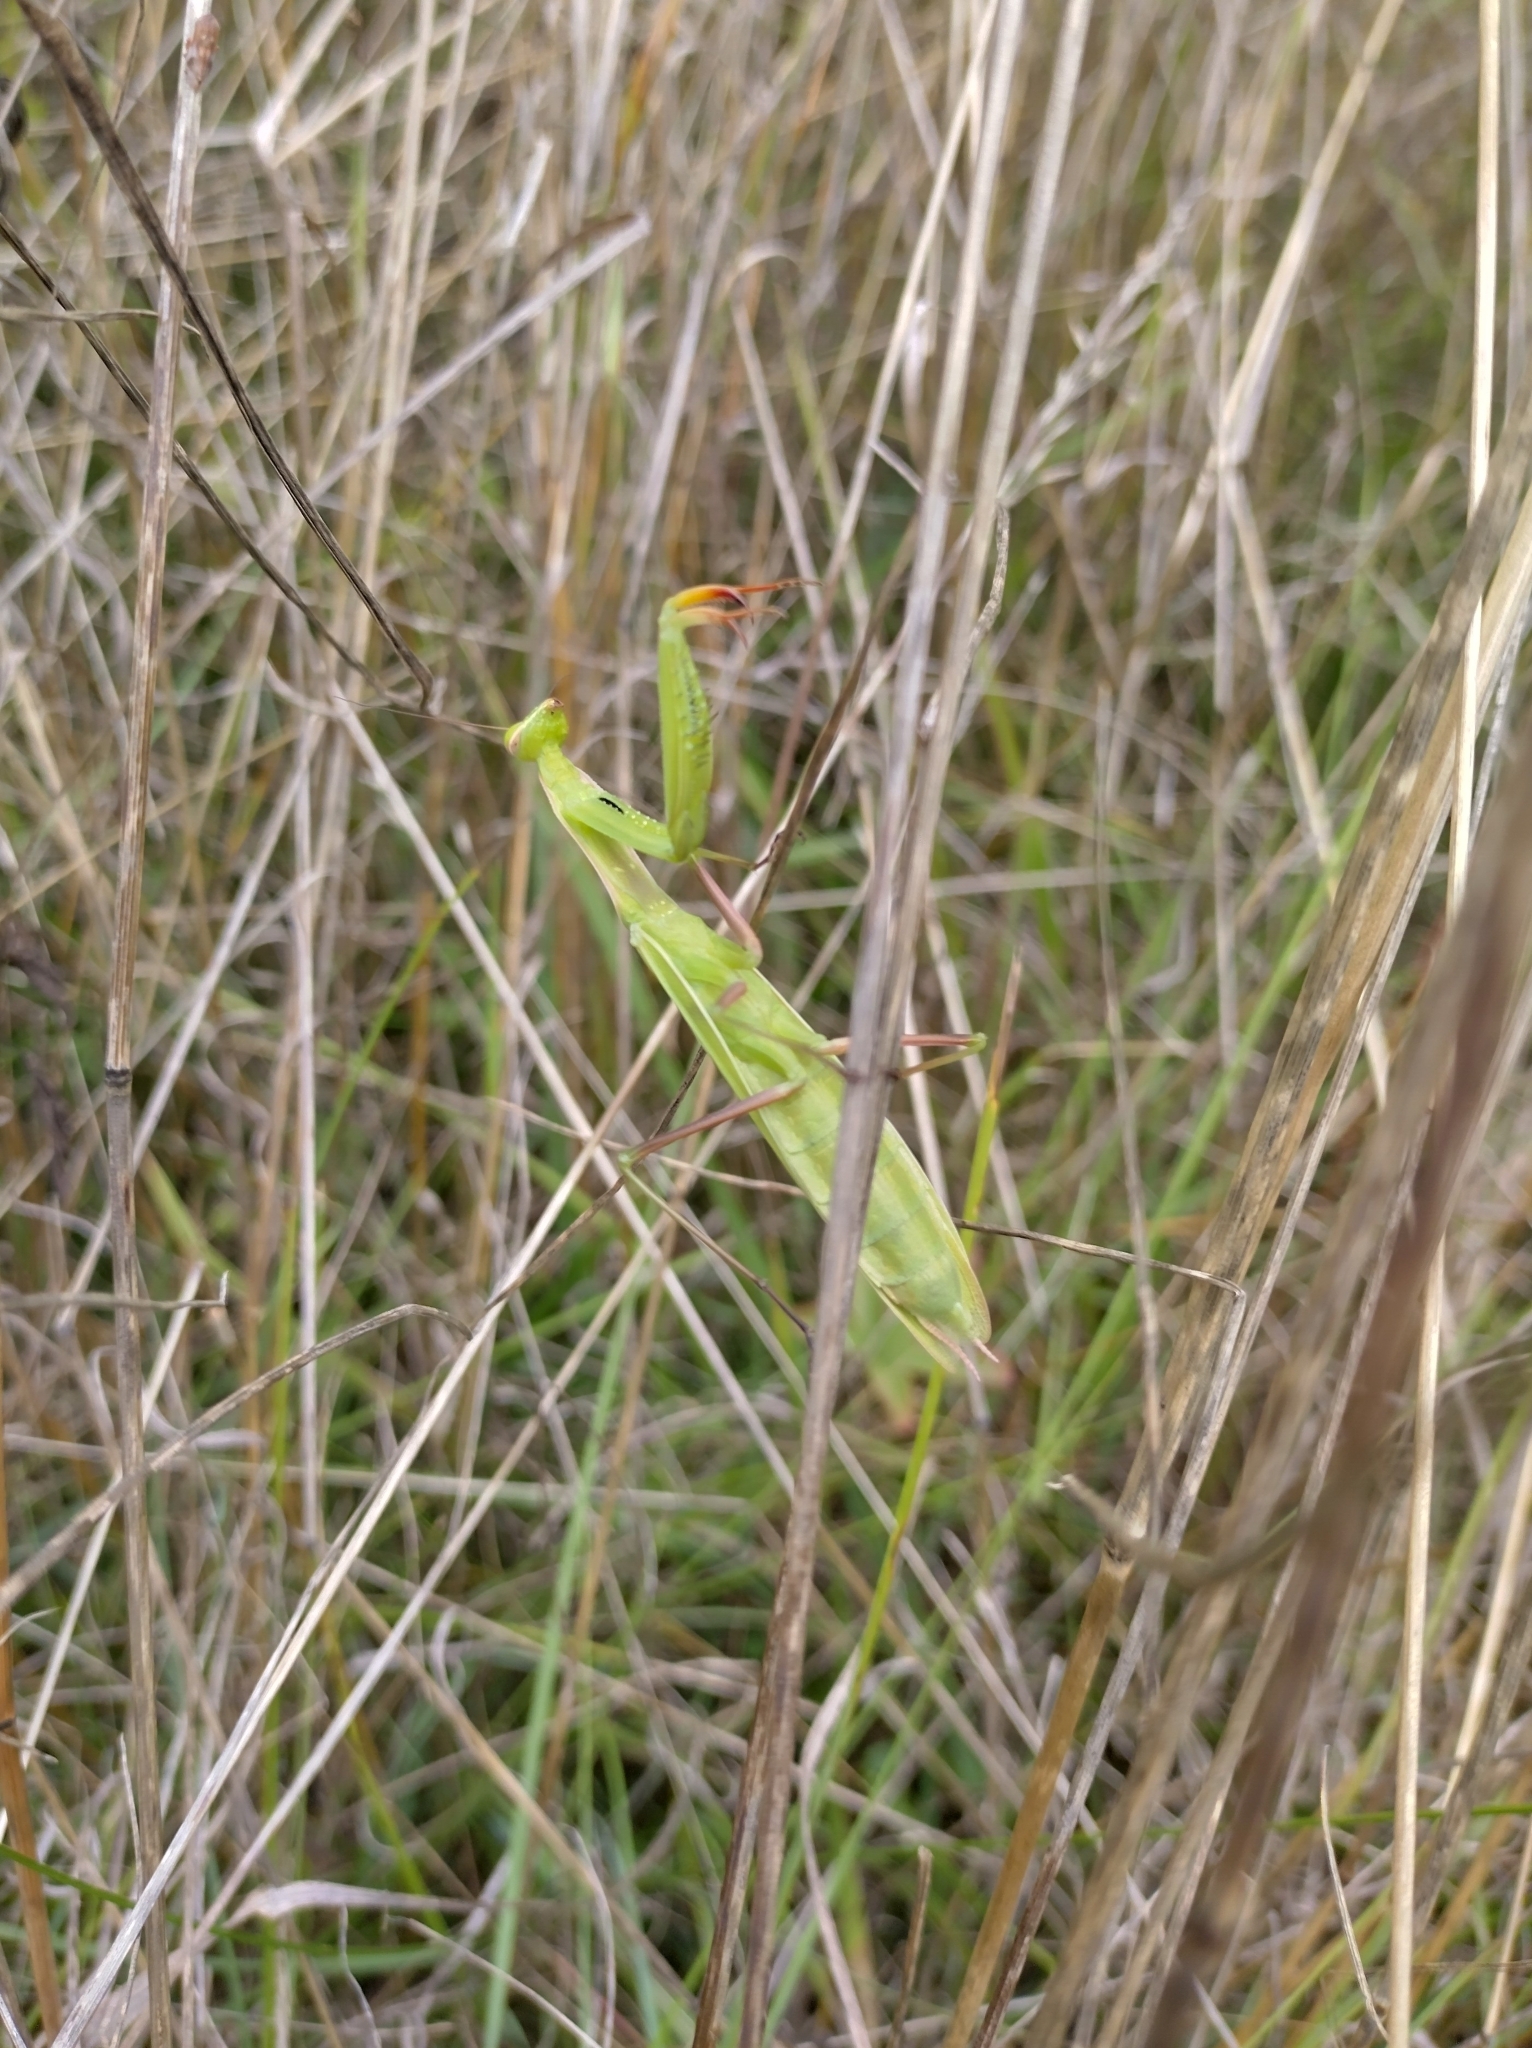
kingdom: Animalia
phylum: Arthropoda
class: Insecta
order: Mantodea
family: Mantidae
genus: Mantis
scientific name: Mantis religiosa
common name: Praying mantis
